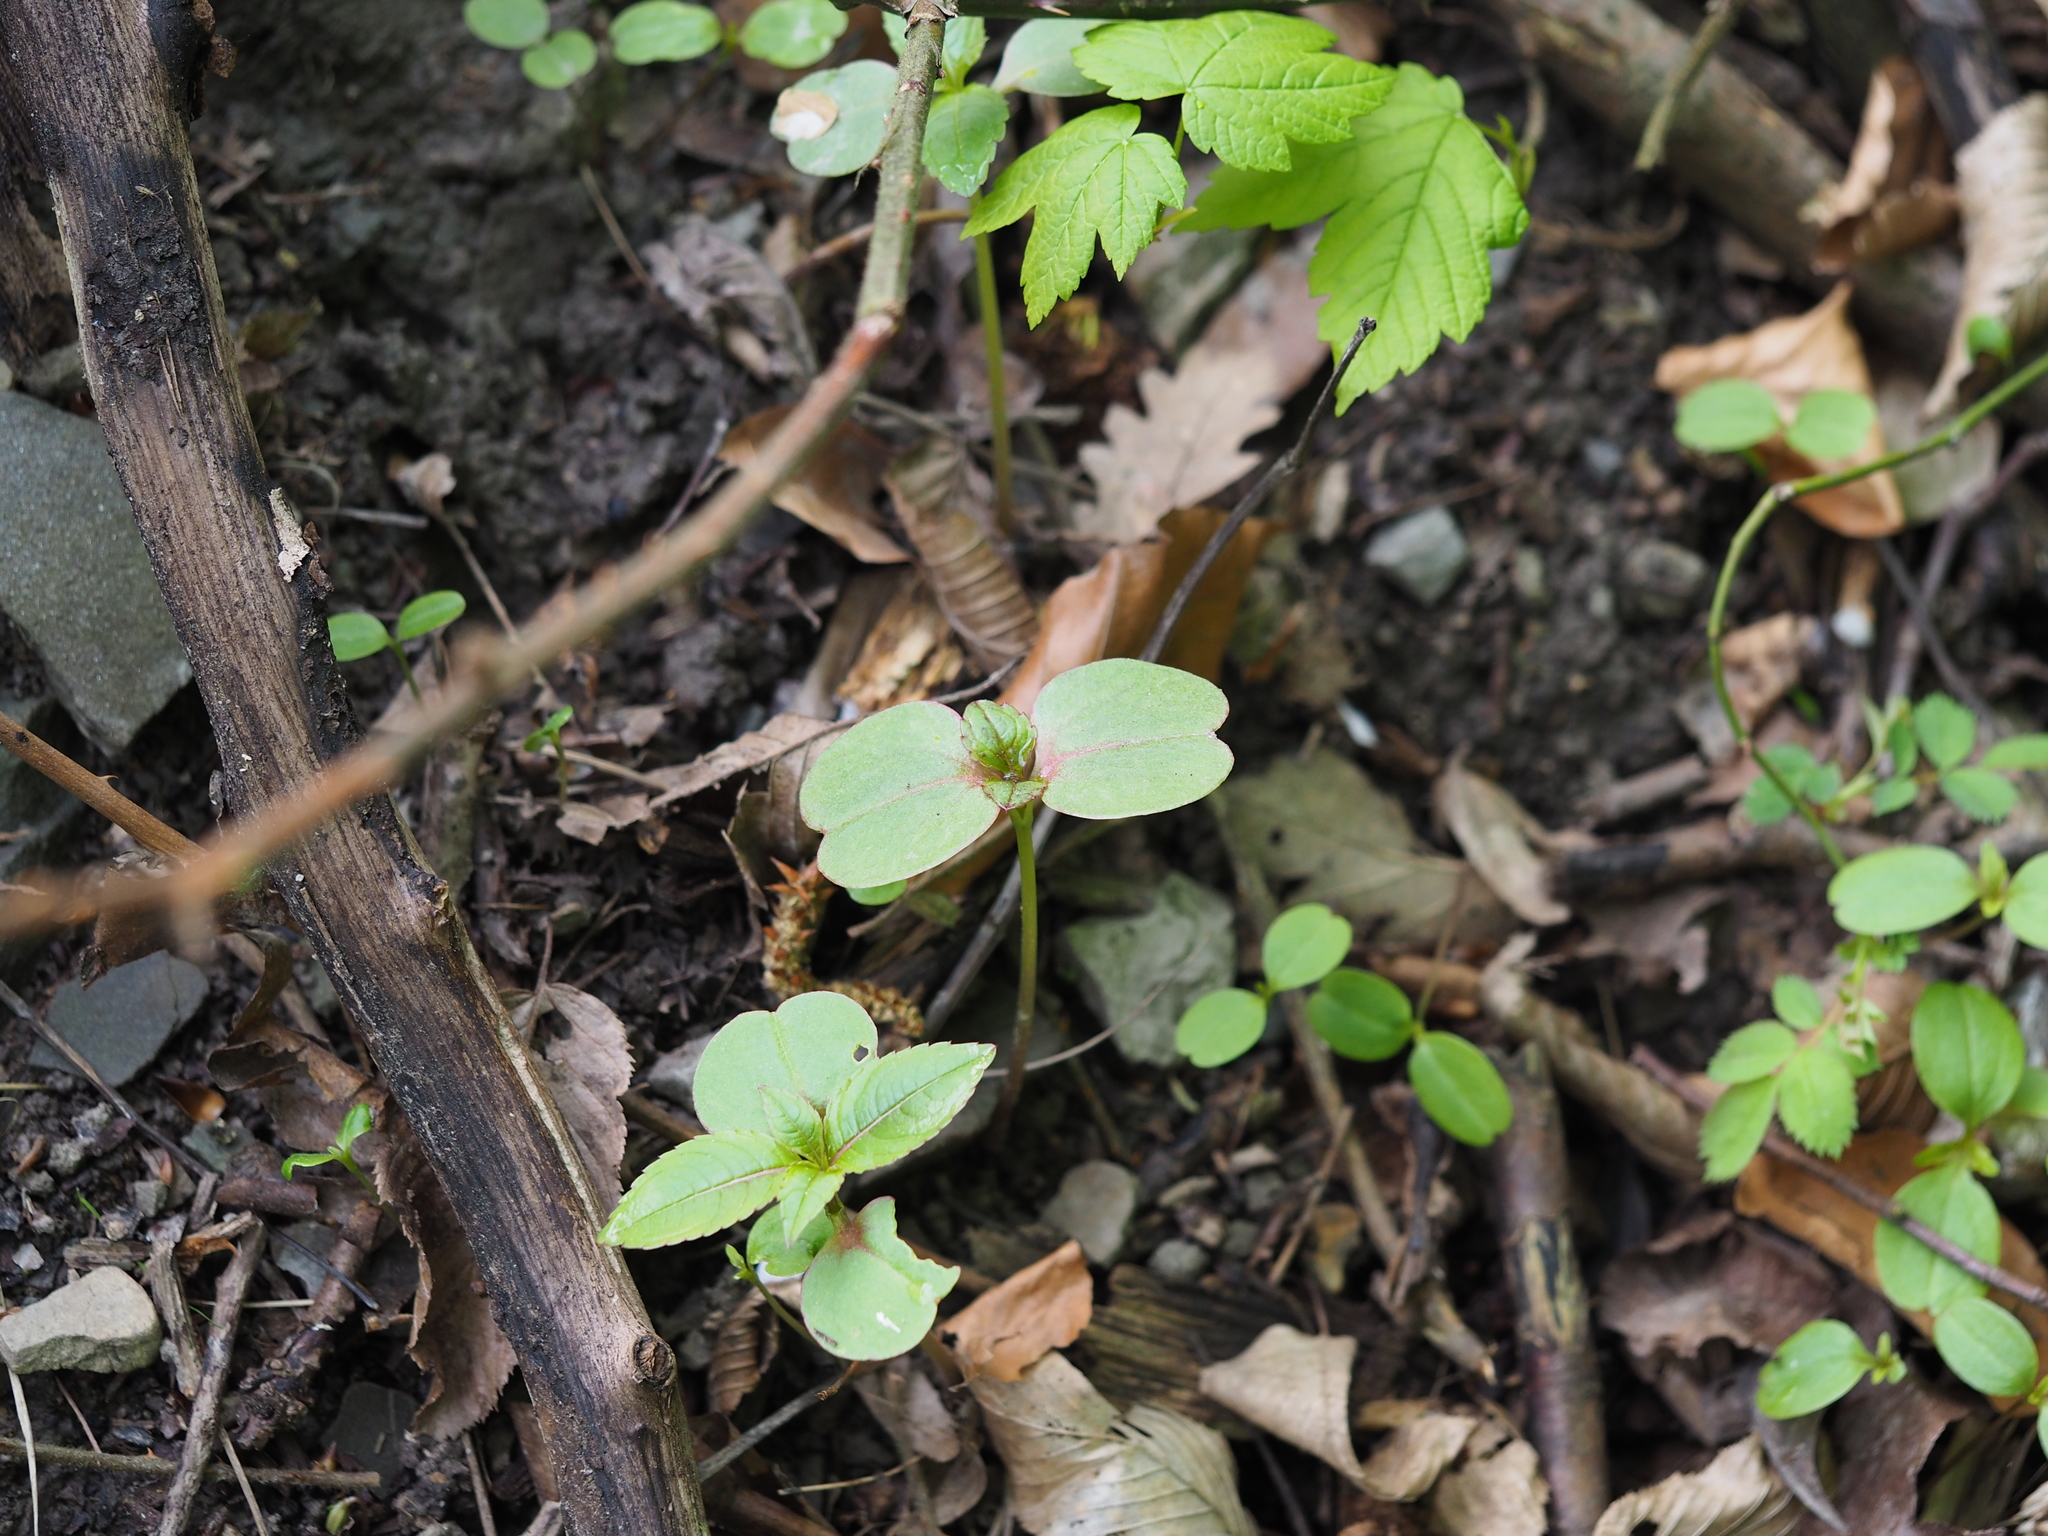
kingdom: Plantae
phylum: Tracheophyta
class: Magnoliopsida
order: Ericales
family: Balsaminaceae
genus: Impatiens
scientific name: Impatiens glandulifera
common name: Himalayan balsam
